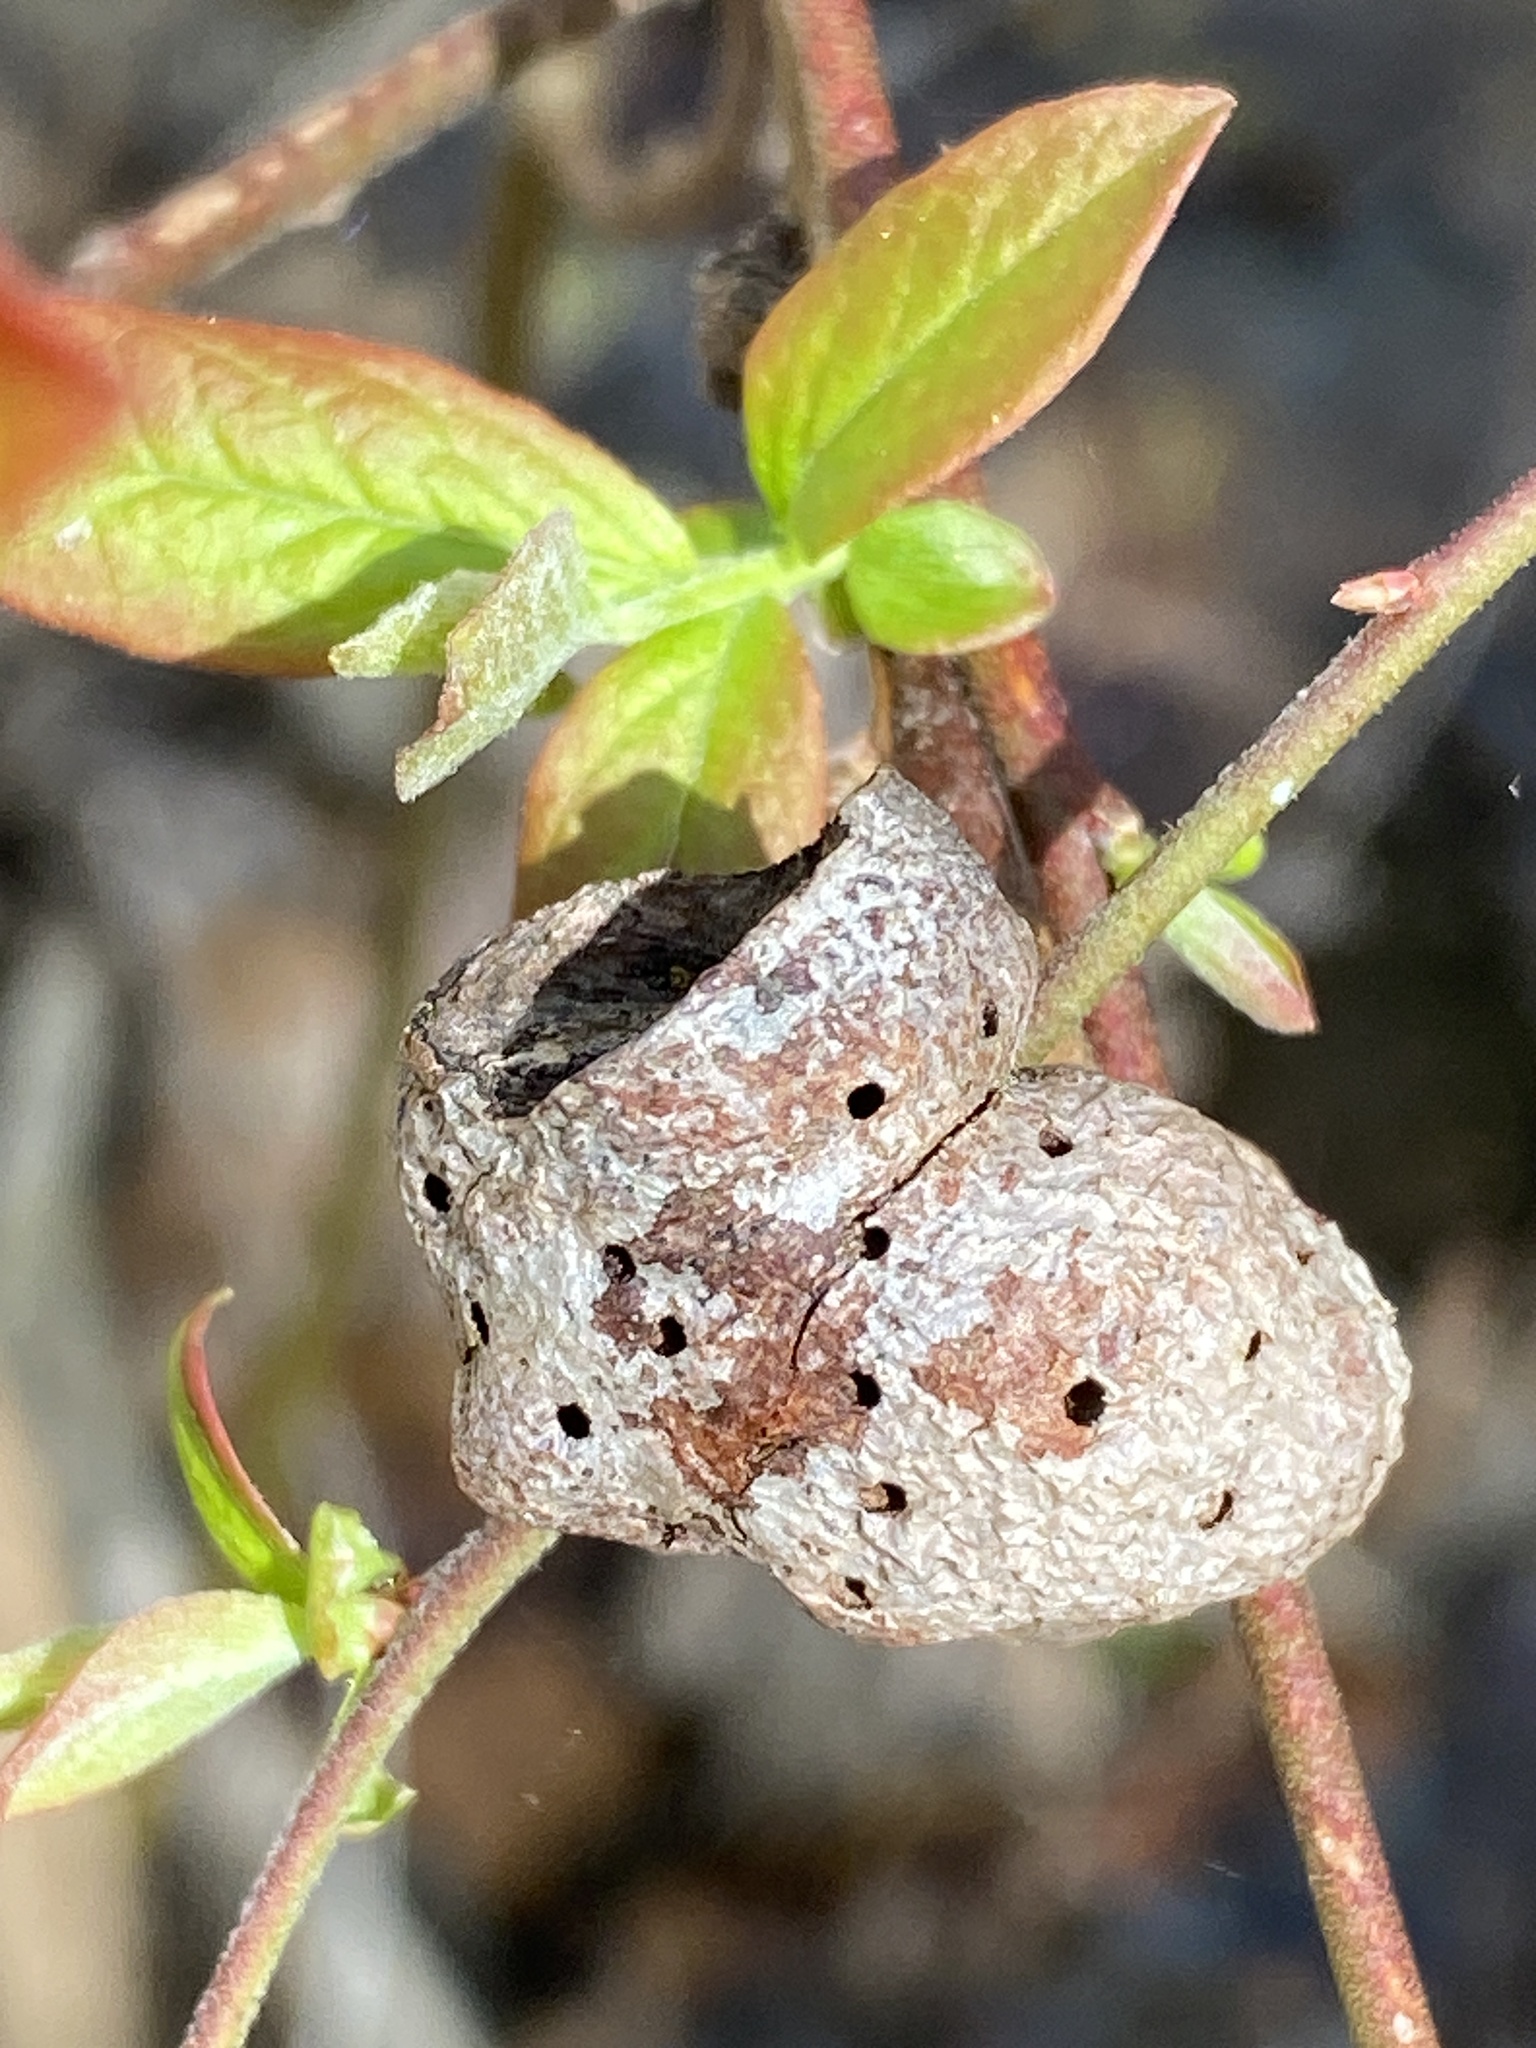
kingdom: Animalia
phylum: Arthropoda
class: Insecta
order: Hymenoptera
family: Pteromalidae
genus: Hemadas
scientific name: Hemadas nubilipennis
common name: Blueberry stem gall wasp
